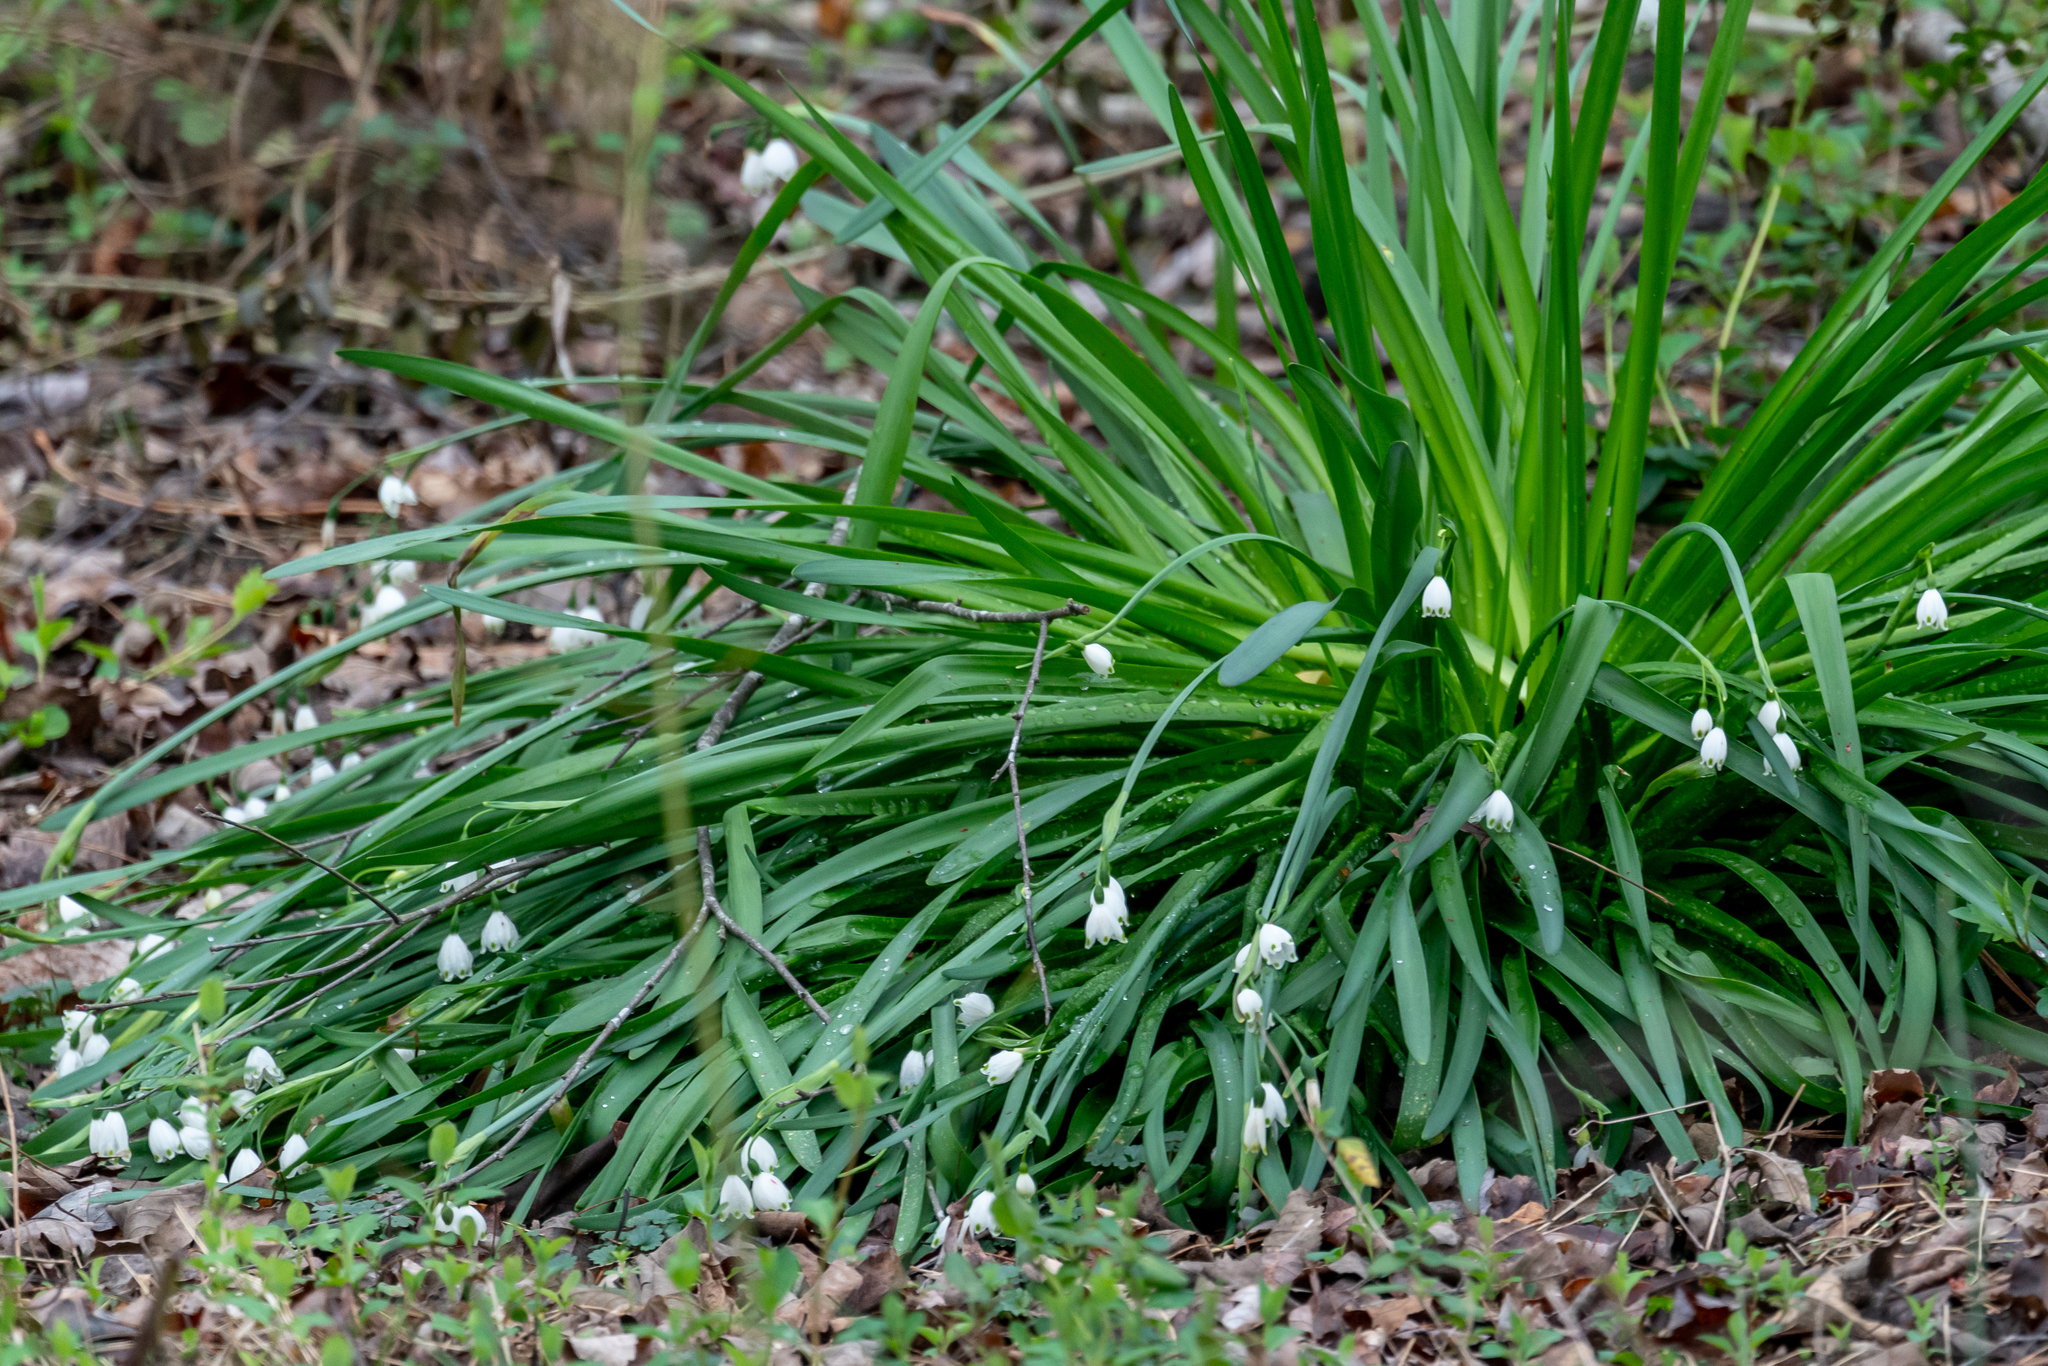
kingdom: Plantae
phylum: Tracheophyta
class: Liliopsida
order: Asparagales
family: Amaryllidaceae
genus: Leucojum
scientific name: Leucojum vernum
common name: Spring snowflake
